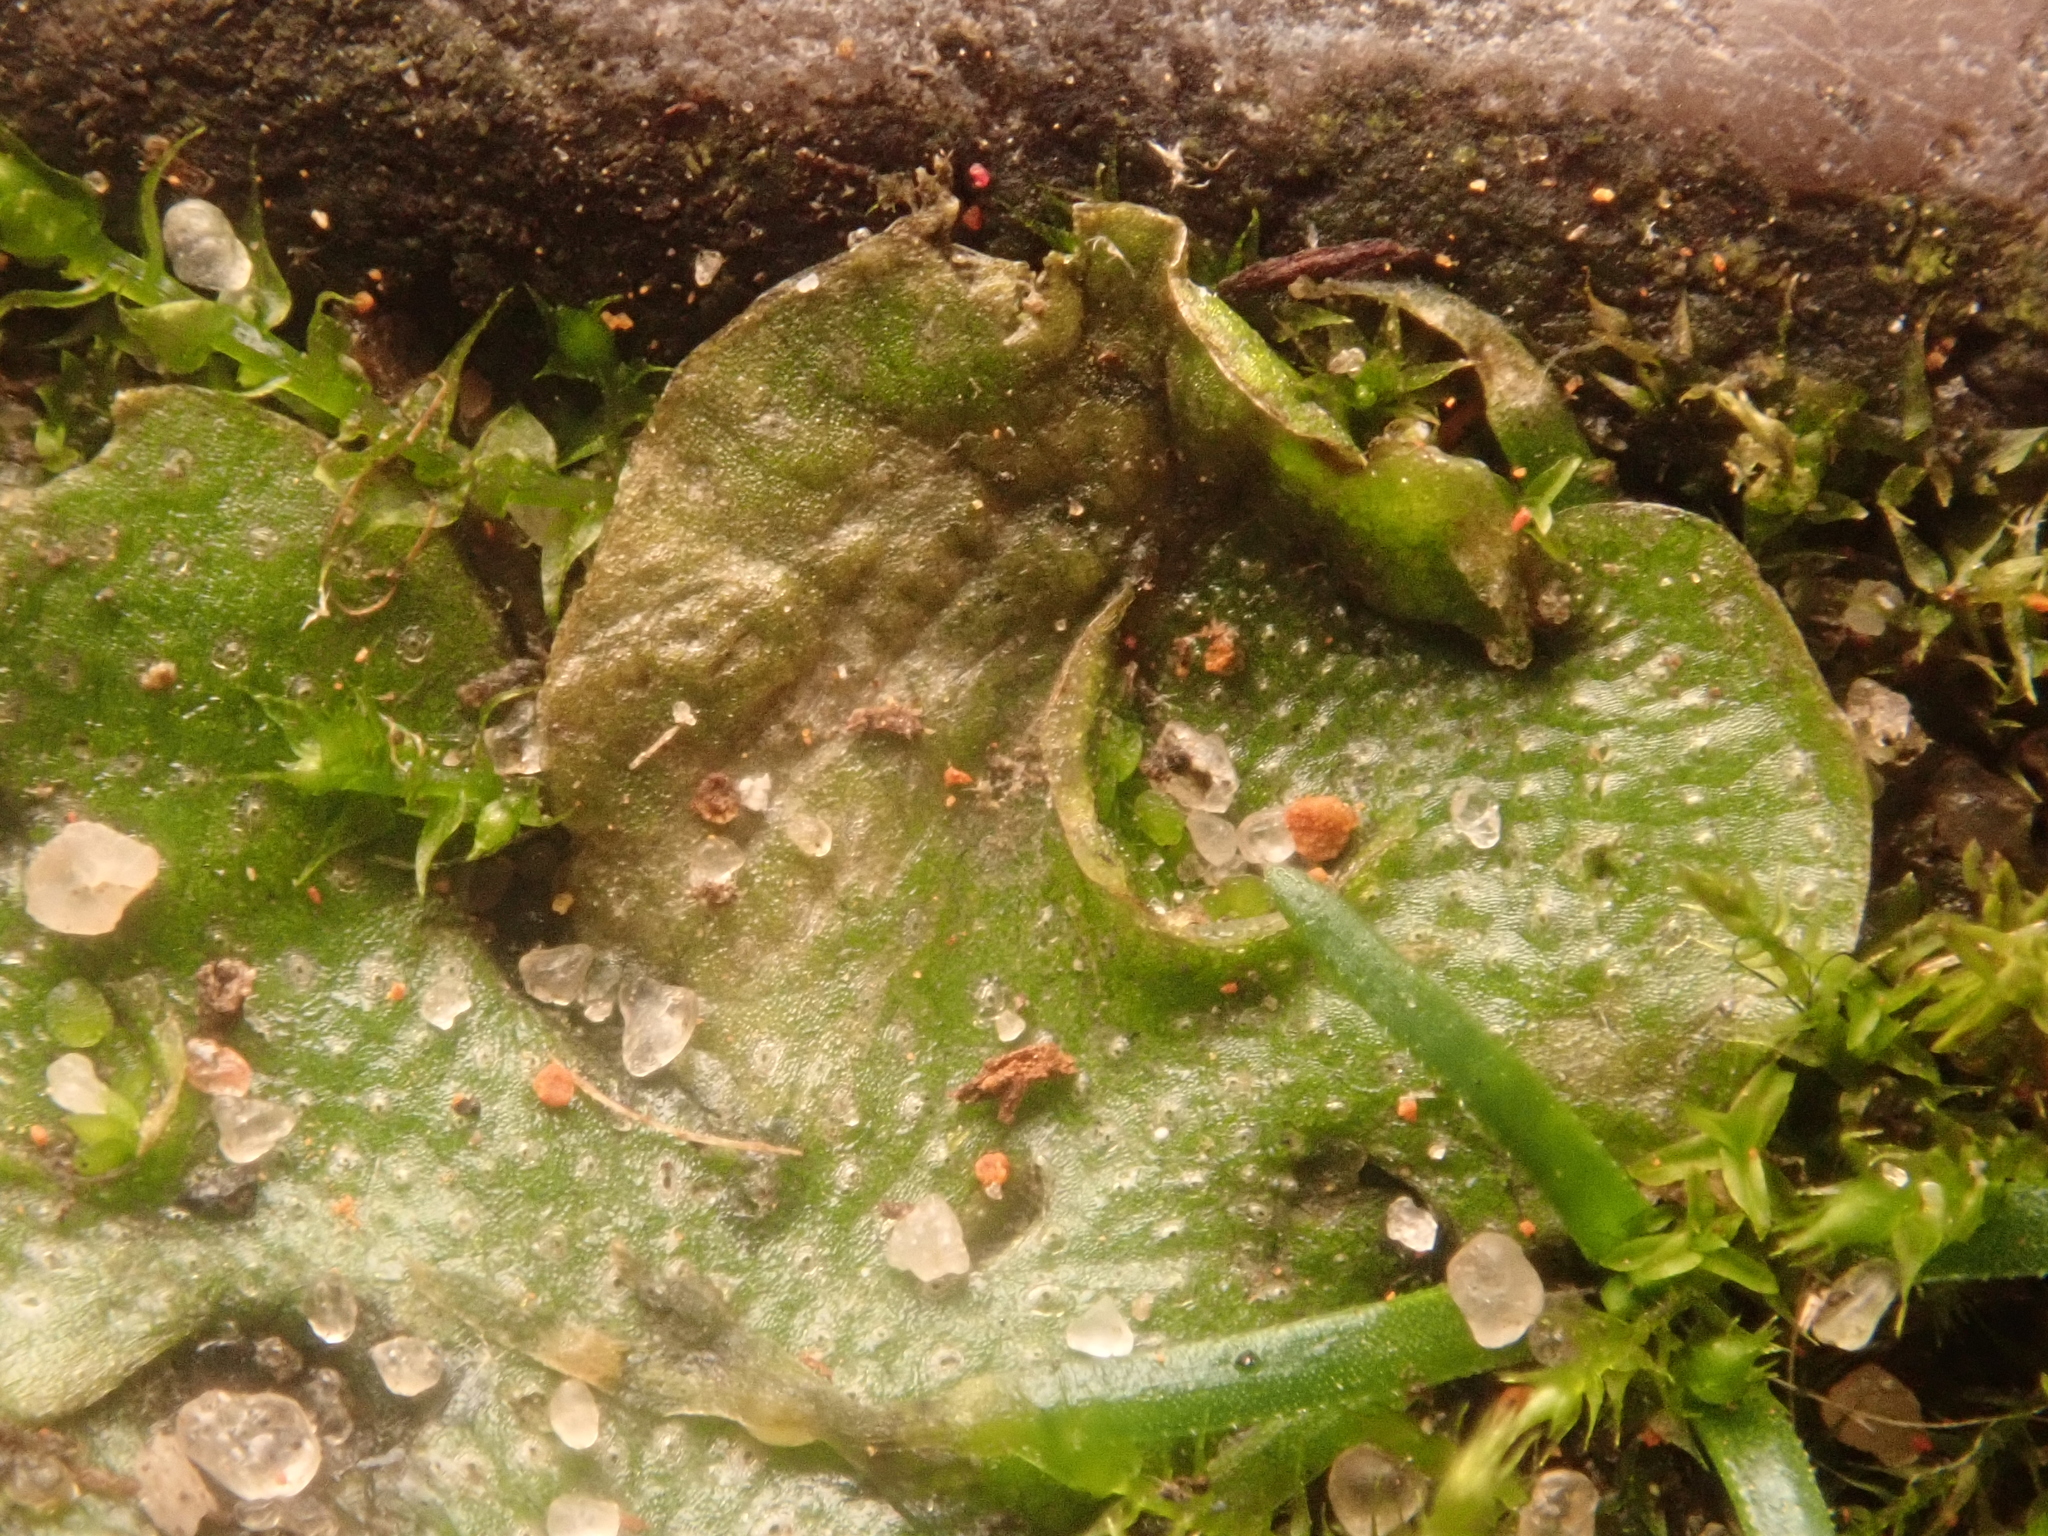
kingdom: Plantae
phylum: Marchantiophyta
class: Marchantiopsida
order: Lunulariales
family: Lunulariaceae
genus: Lunularia
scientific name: Lunularia cruciata
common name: Crescent-cup liverwort
